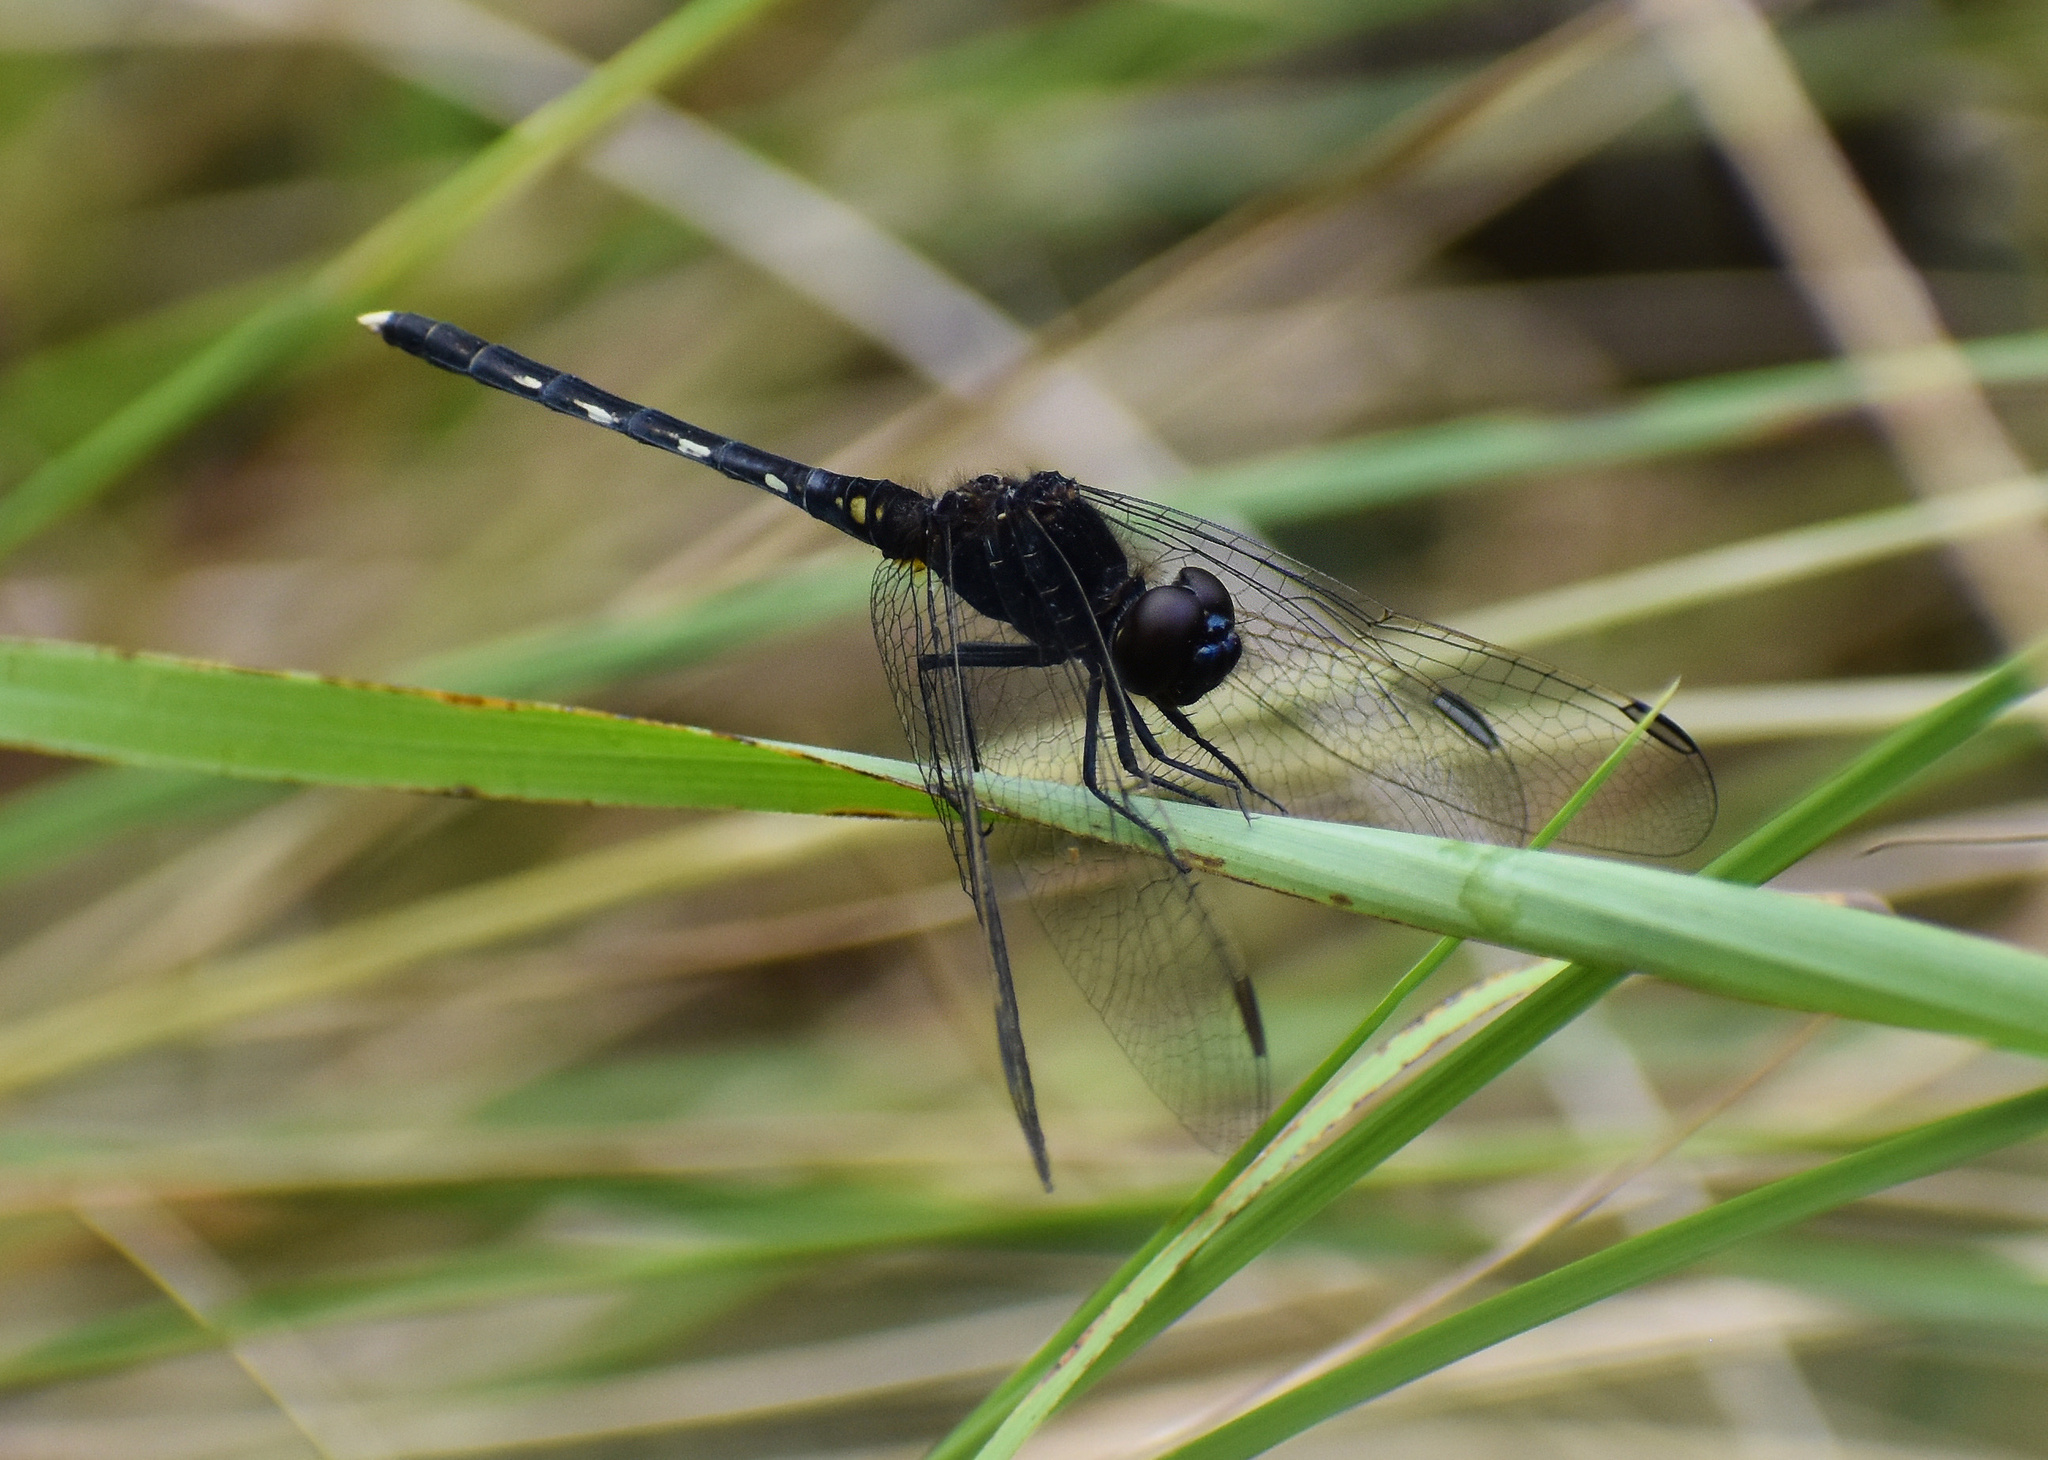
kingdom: Animalia
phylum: Arthropoda
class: Insecta
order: Odonata
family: Libellulidae
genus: Diplacodes
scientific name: Diplacodes lefebvrii
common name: Black percher
